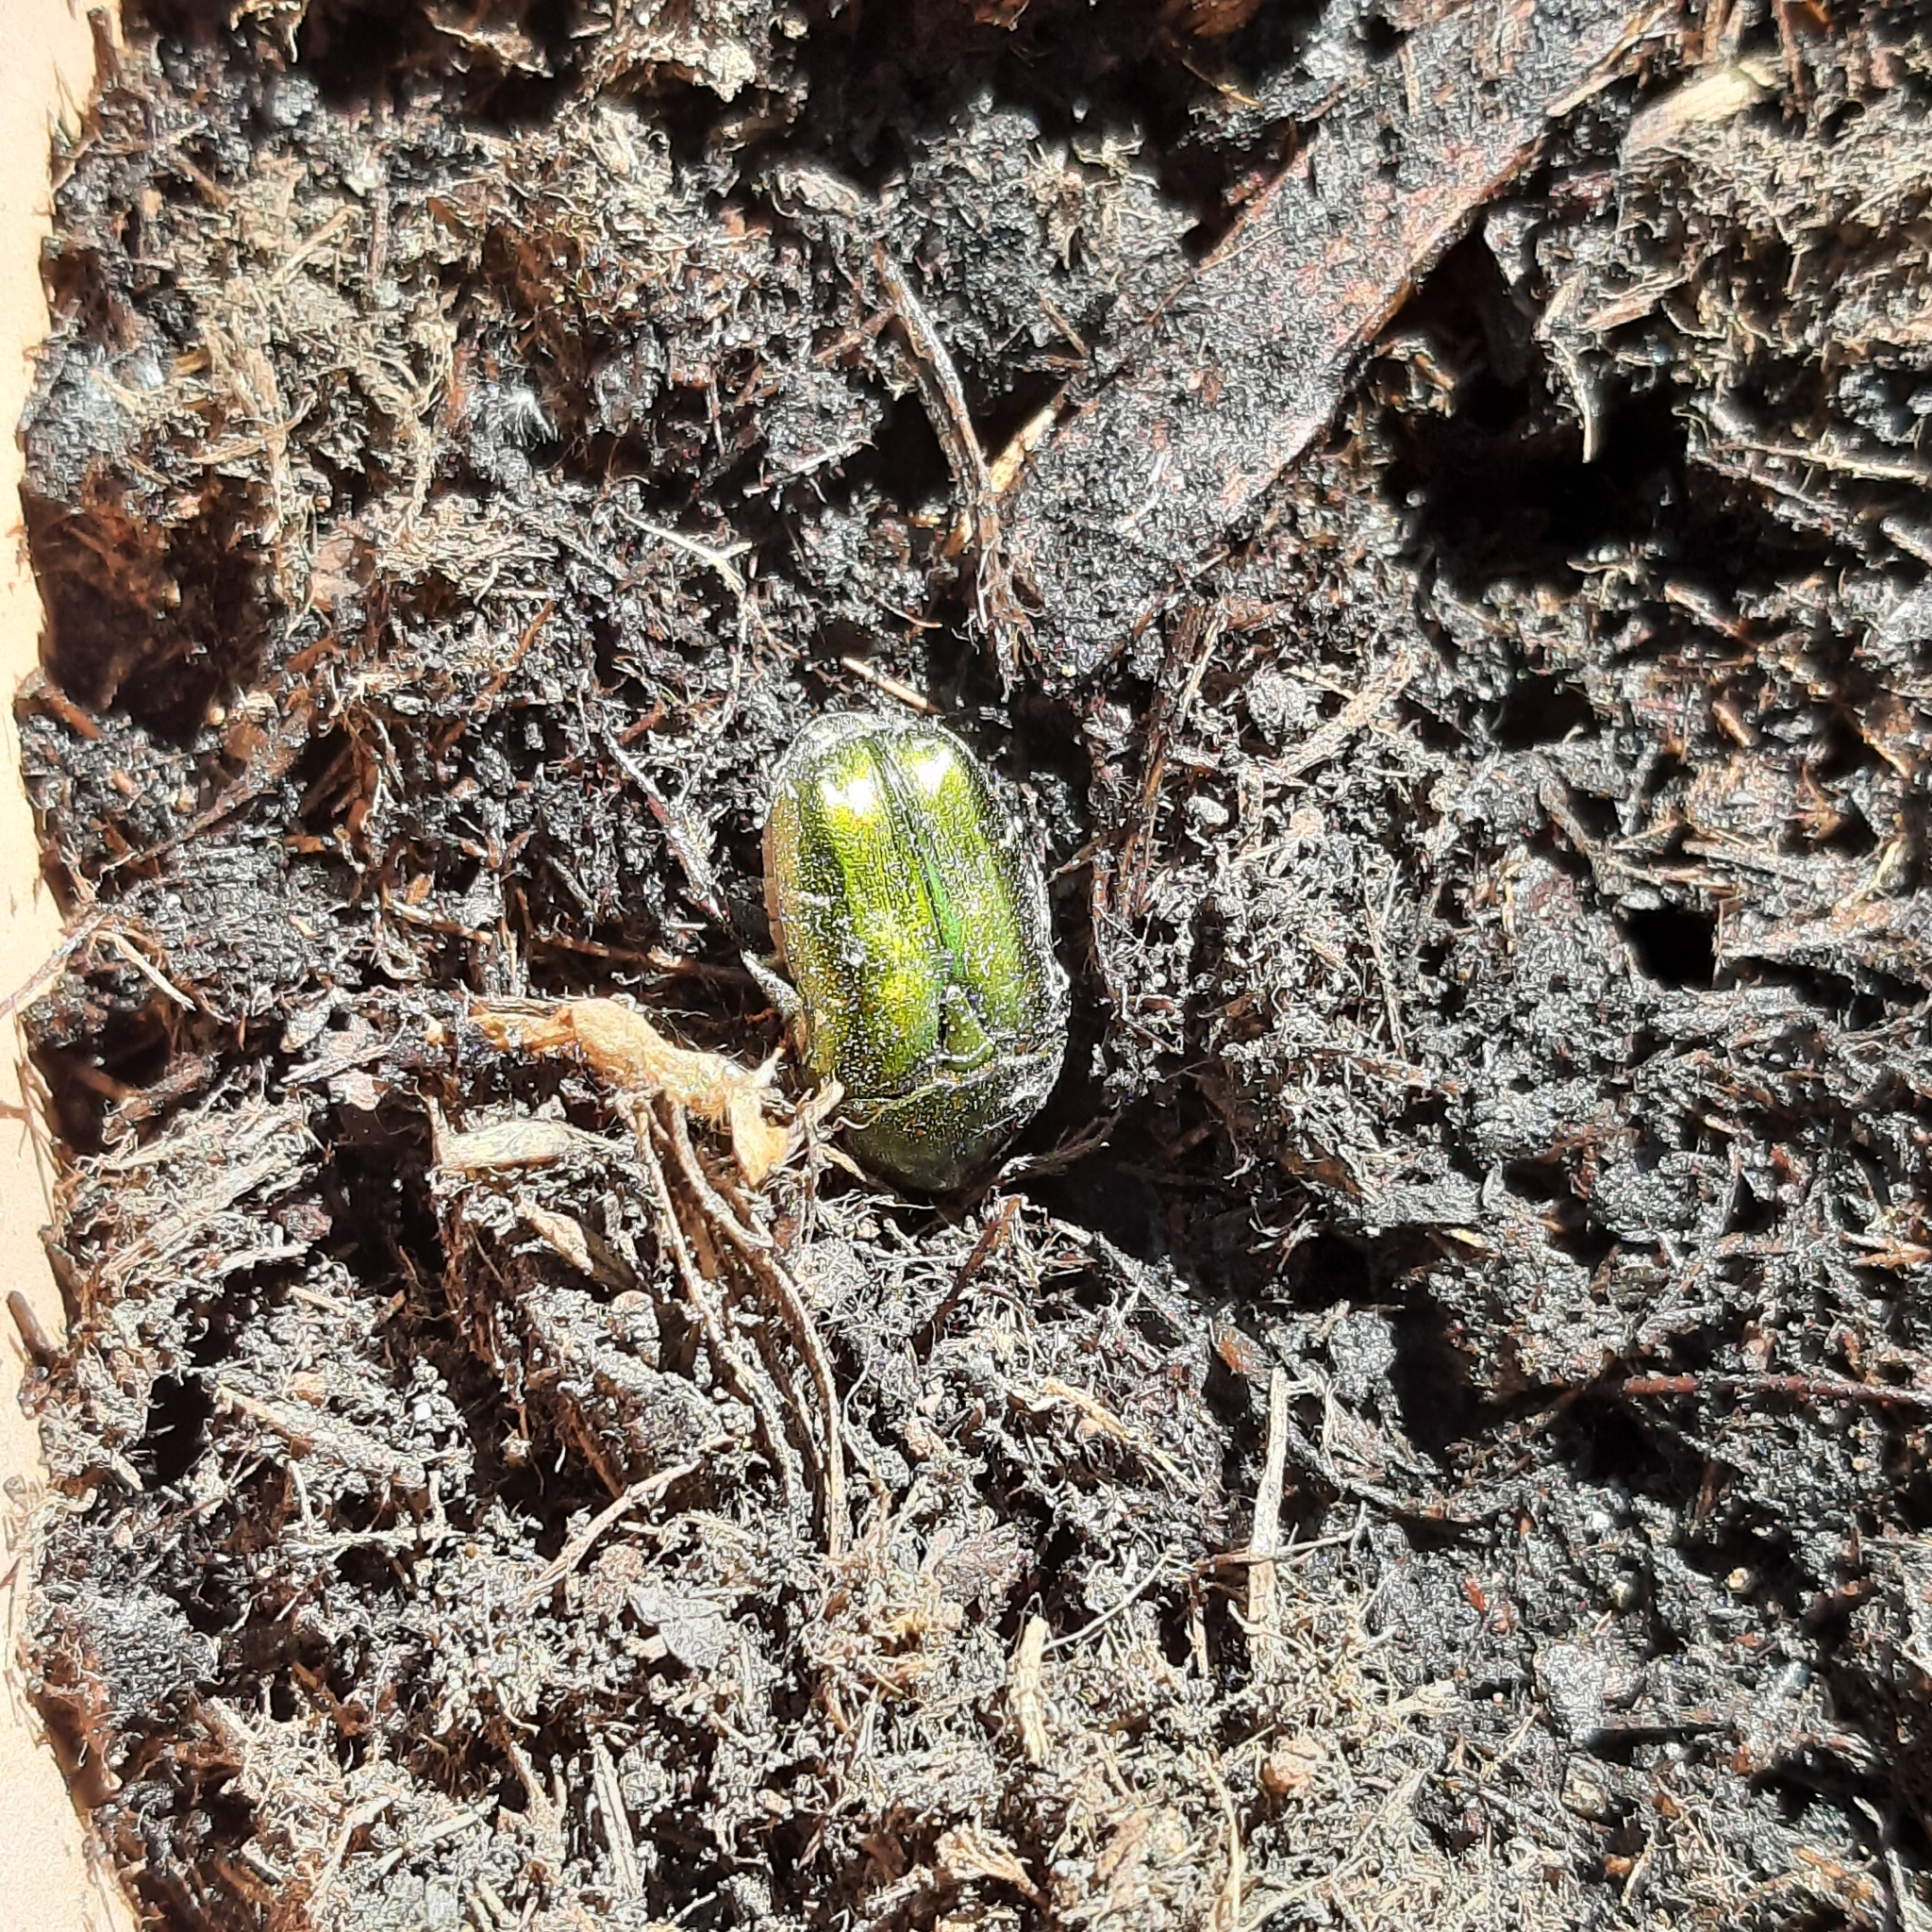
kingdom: Animalia
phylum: Arthropoda
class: Insecta
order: Coleoptera
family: Scarabaeidae
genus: Protaetia
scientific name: Protaetia cuprea
